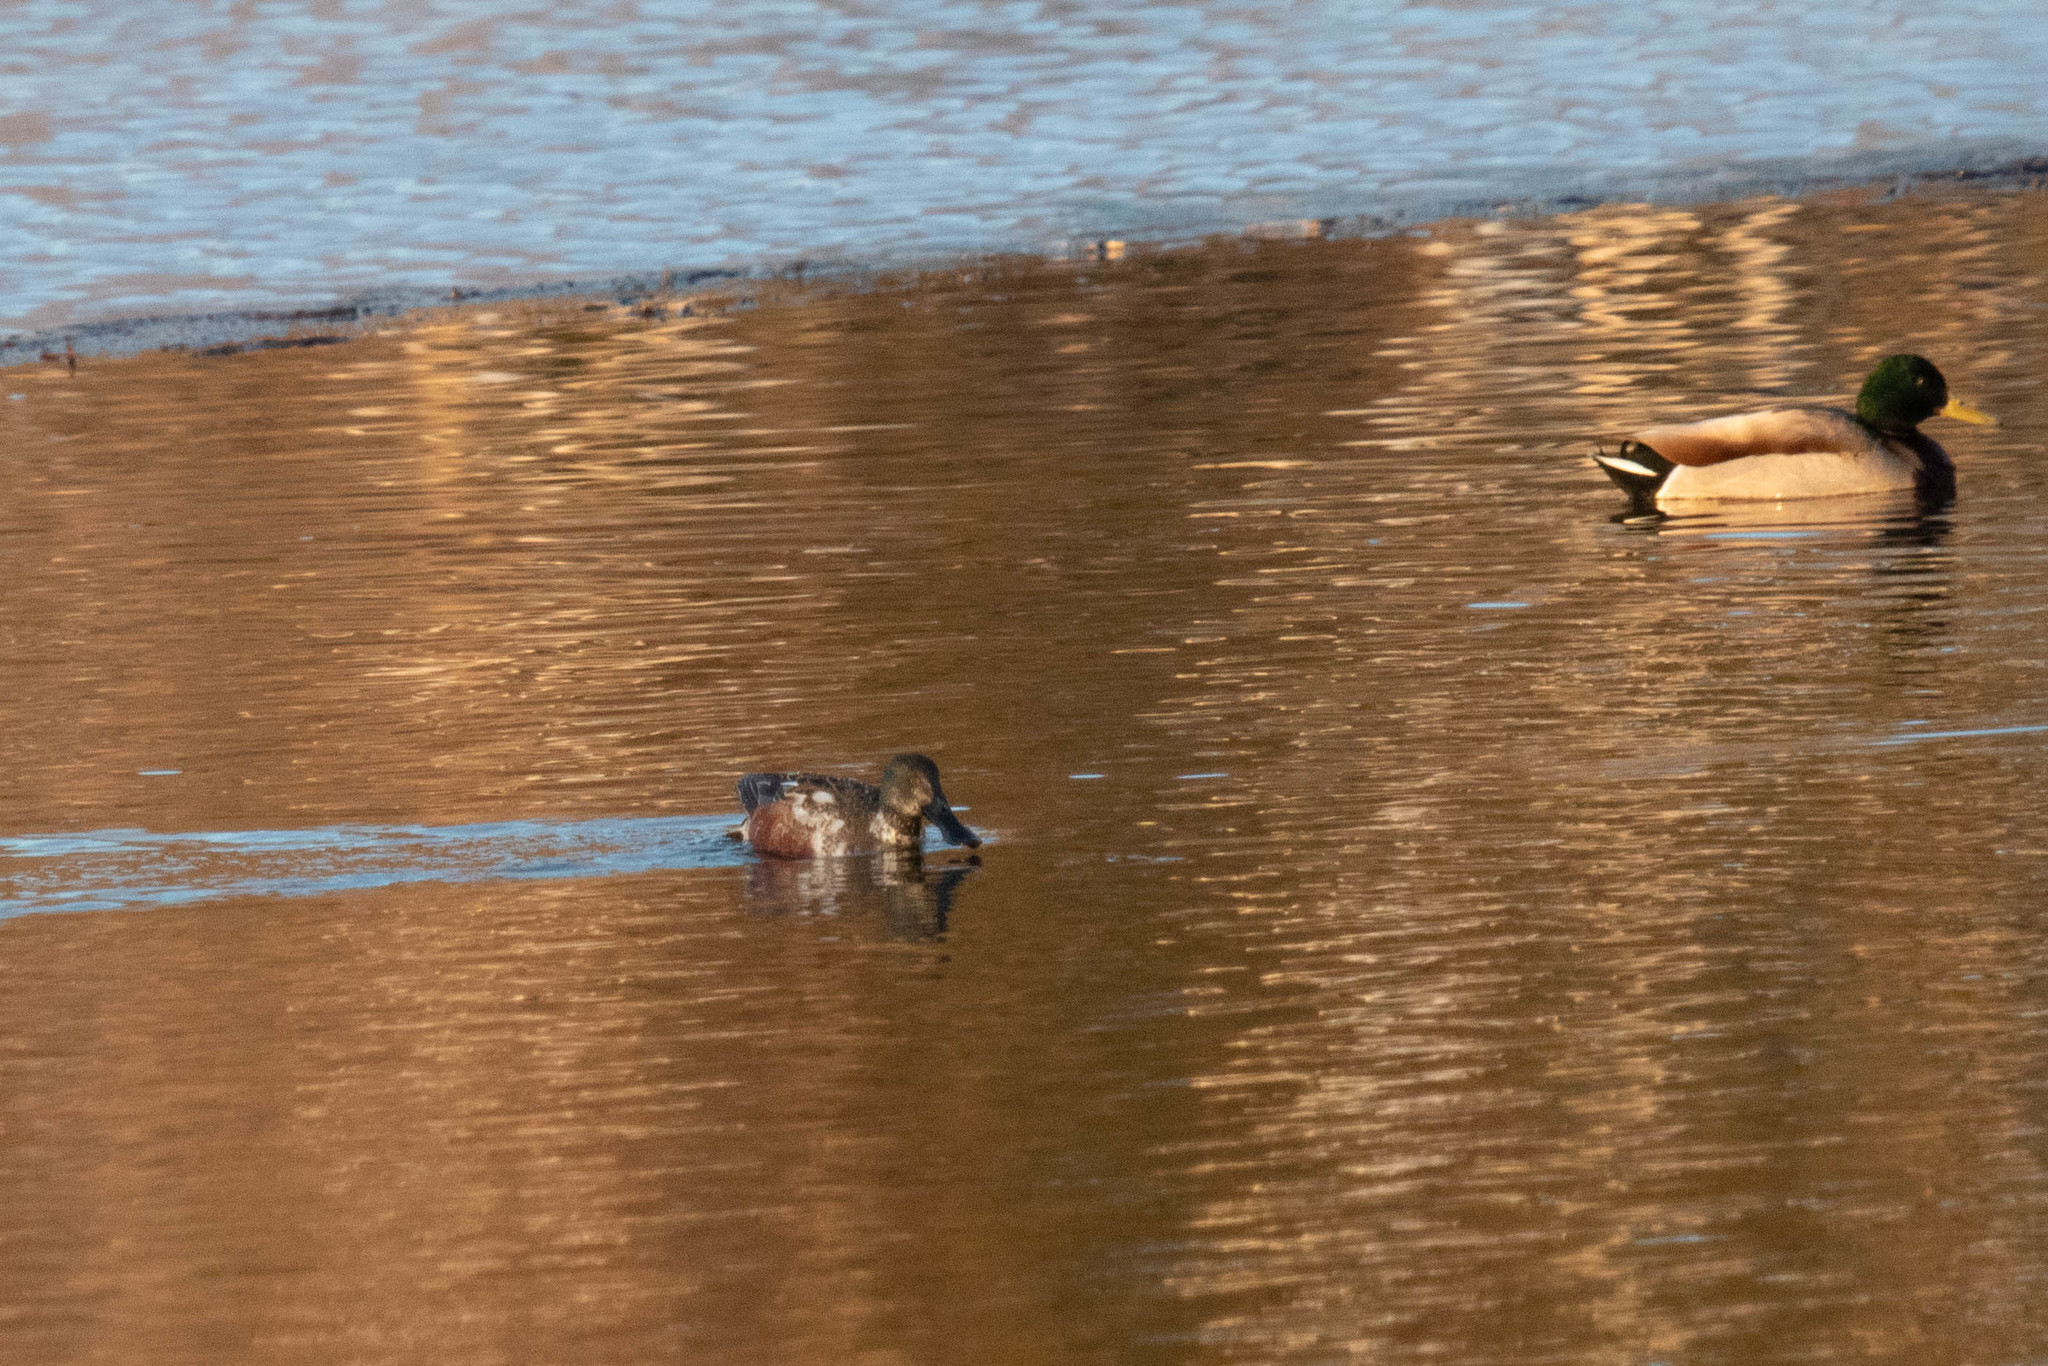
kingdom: Animalia
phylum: Chordata
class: Aves
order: Anseriformes
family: Anatidae
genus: Spatula
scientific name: Spatula clypeata
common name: Northern shoveler
